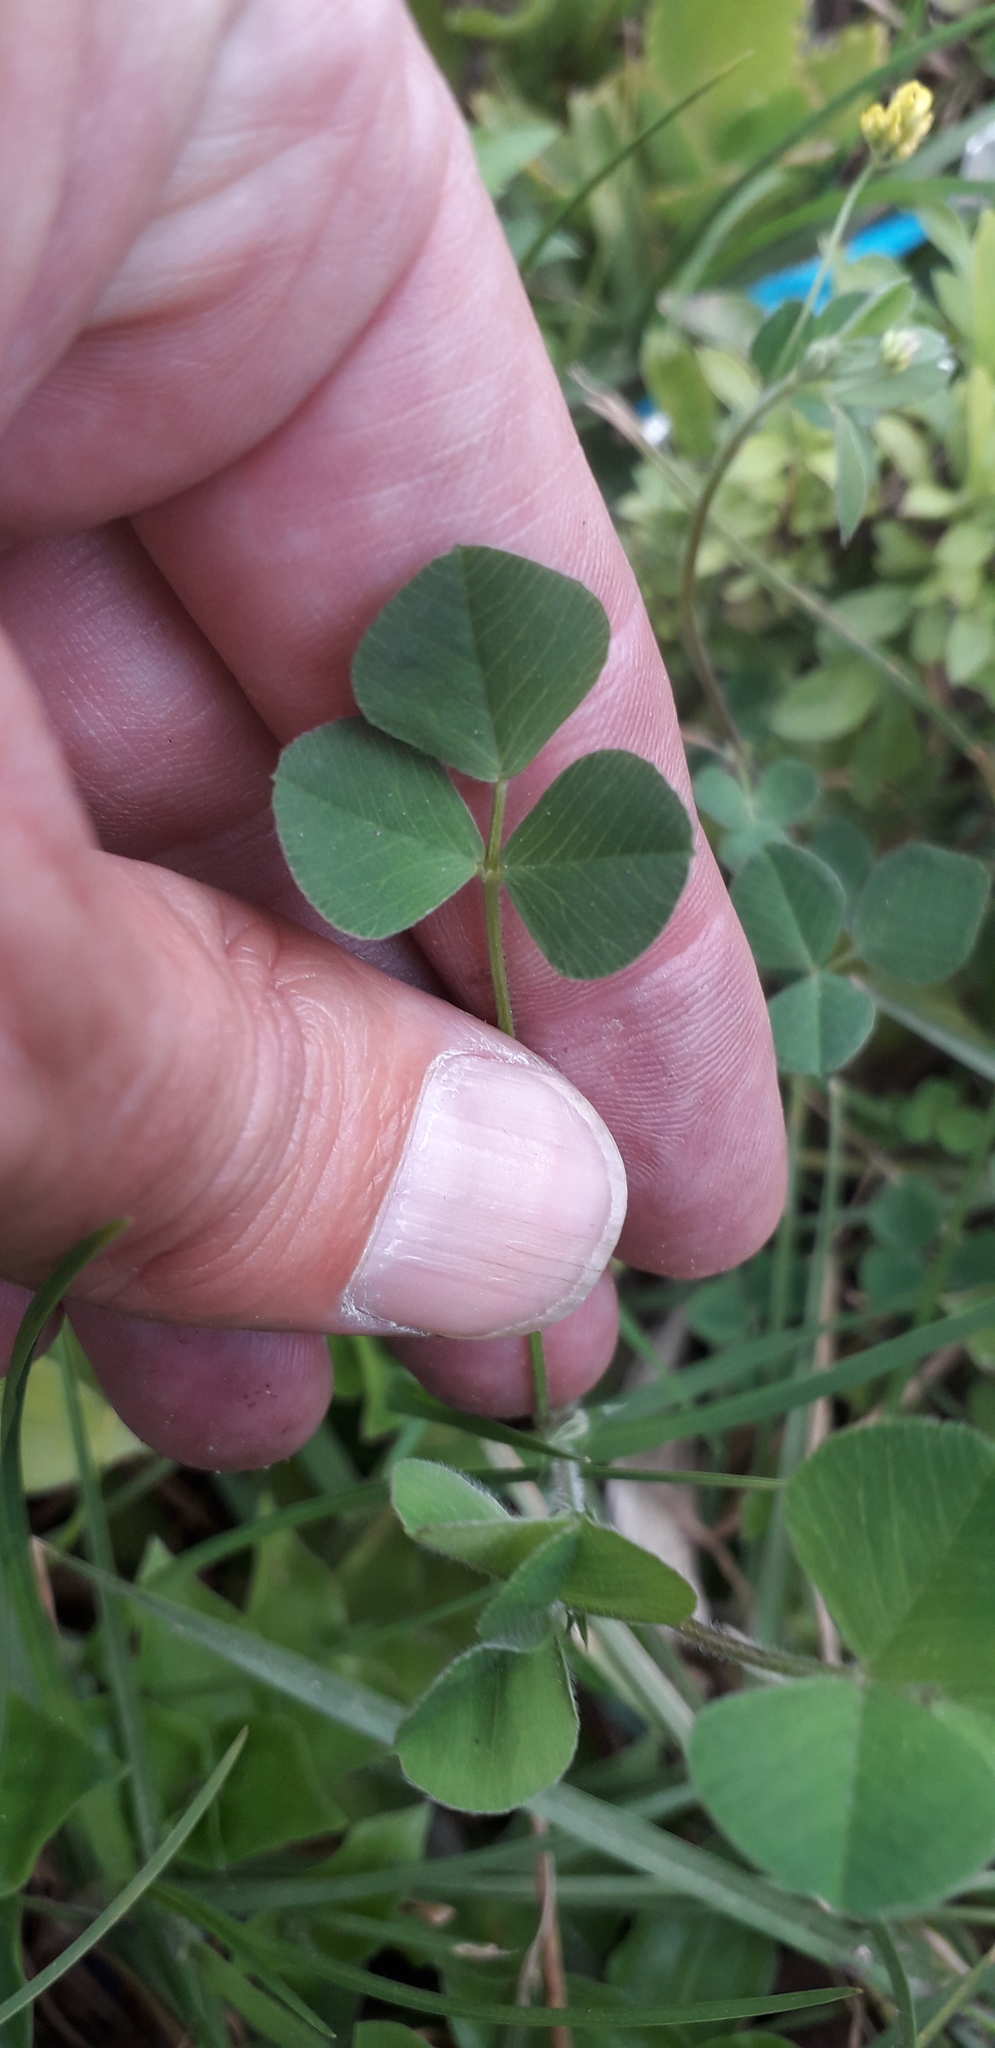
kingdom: Plantae
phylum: Tracheophyta
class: Magnoliopsida
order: Fabales
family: Fabaceae
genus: Medicago
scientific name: Medicago lupulina
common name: Black medick
